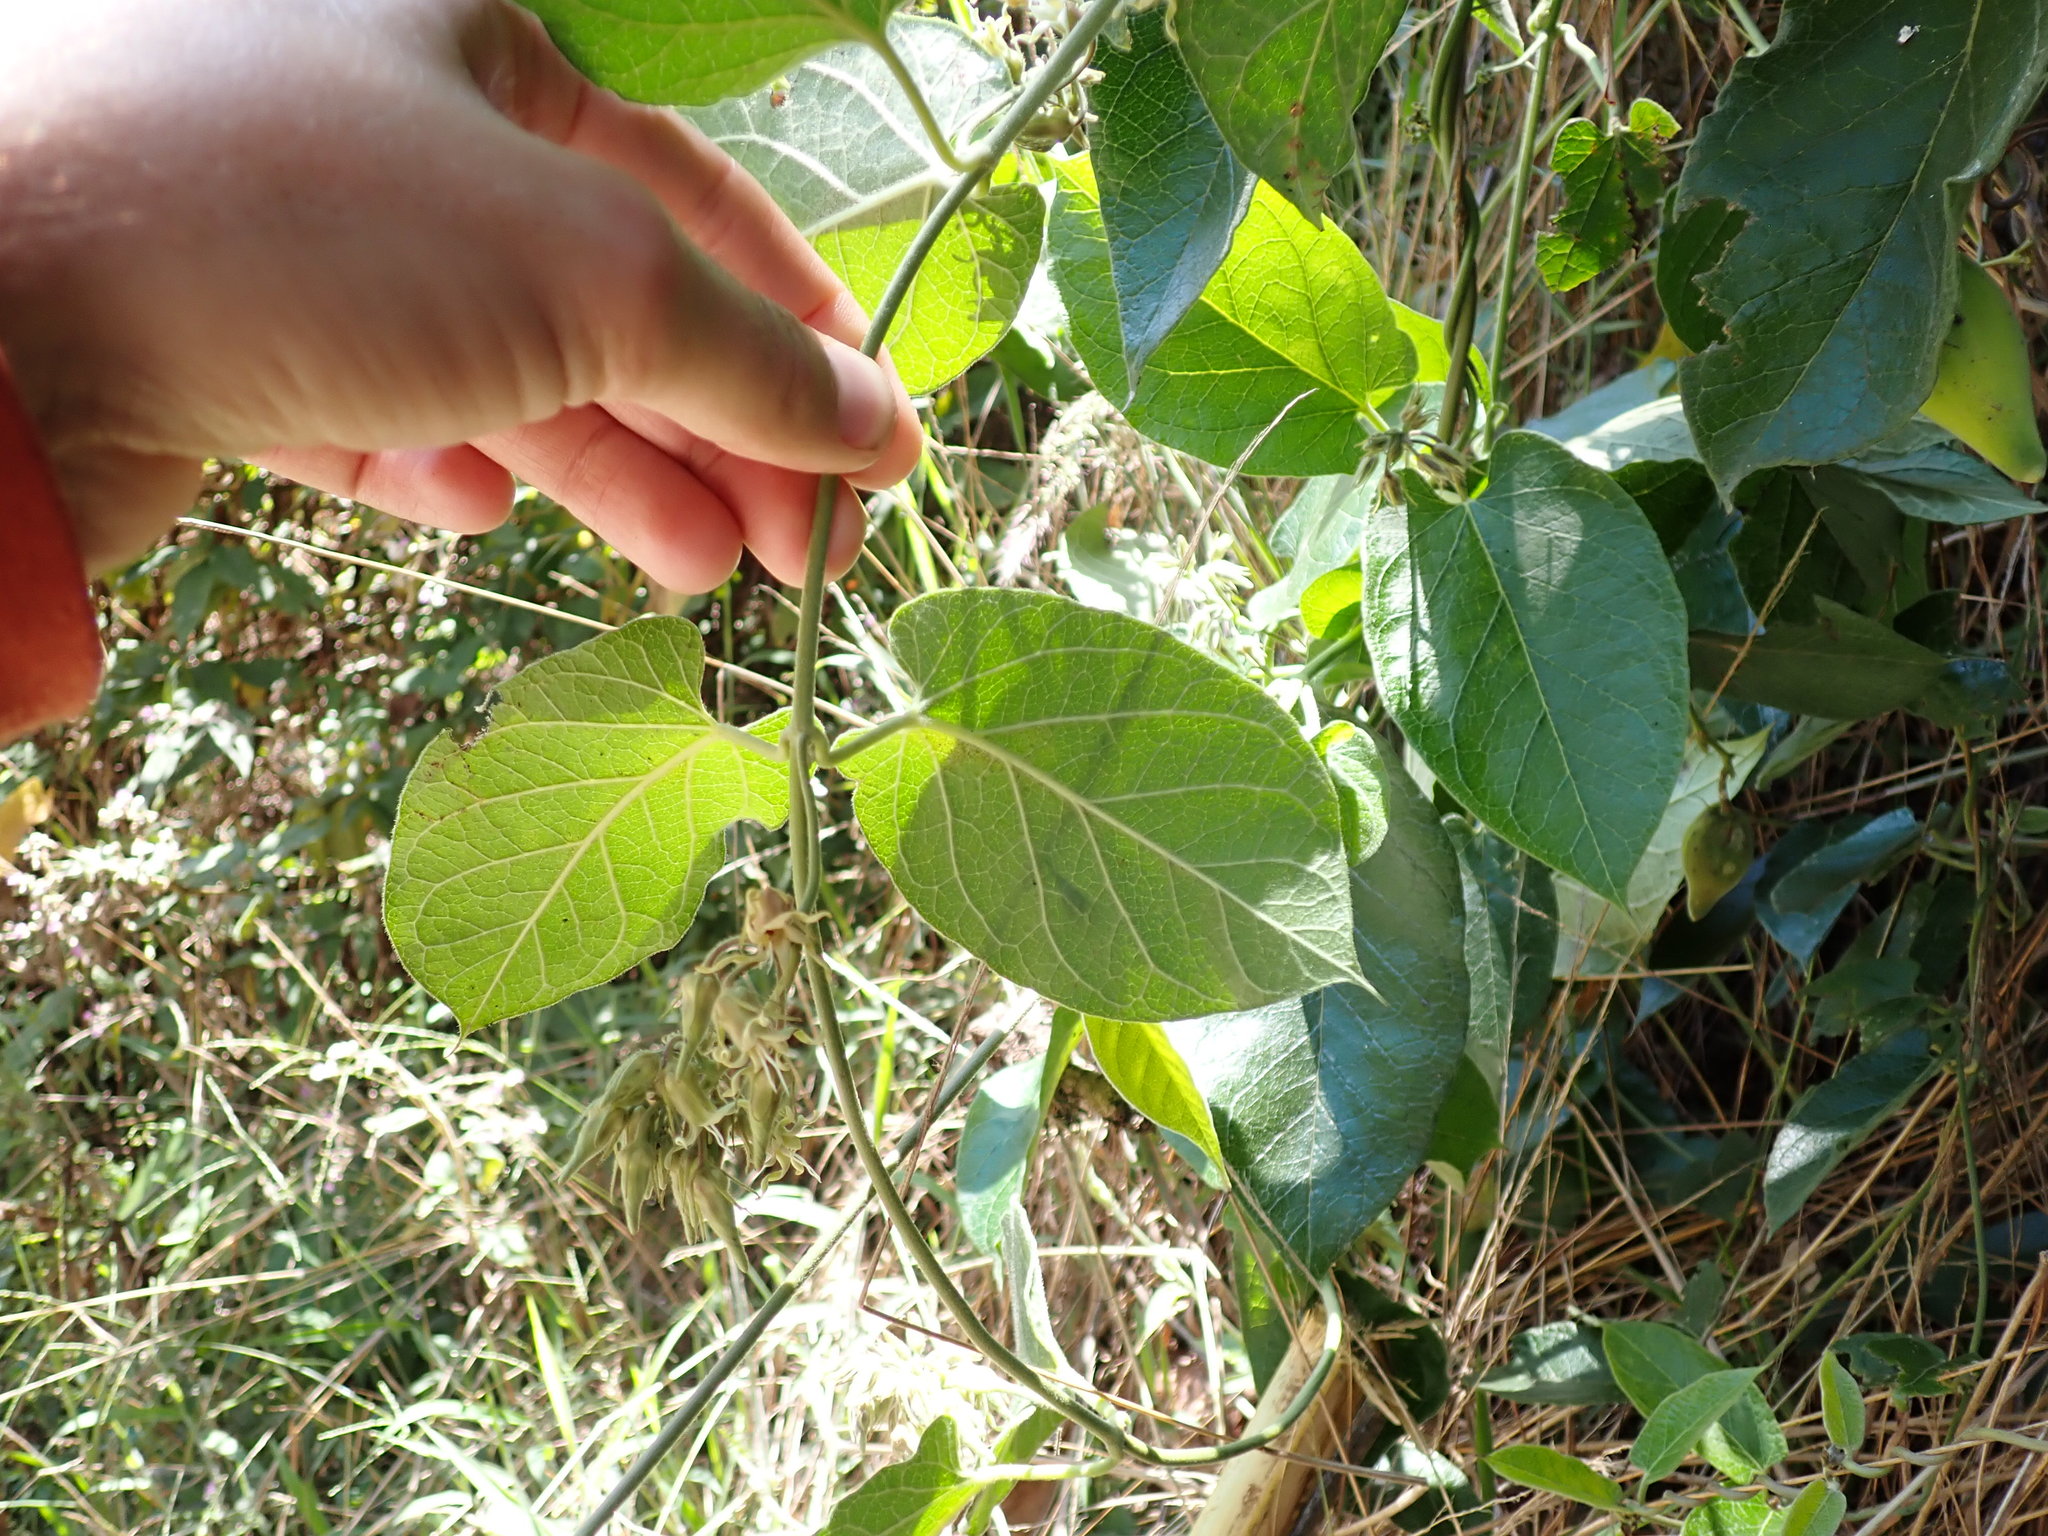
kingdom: Plantae
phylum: Tracheophyta
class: Magnoliopsida
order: Gentianales
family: Apocynaceae
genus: Oxypetalum
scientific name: Oxypetalum dombeyanum
